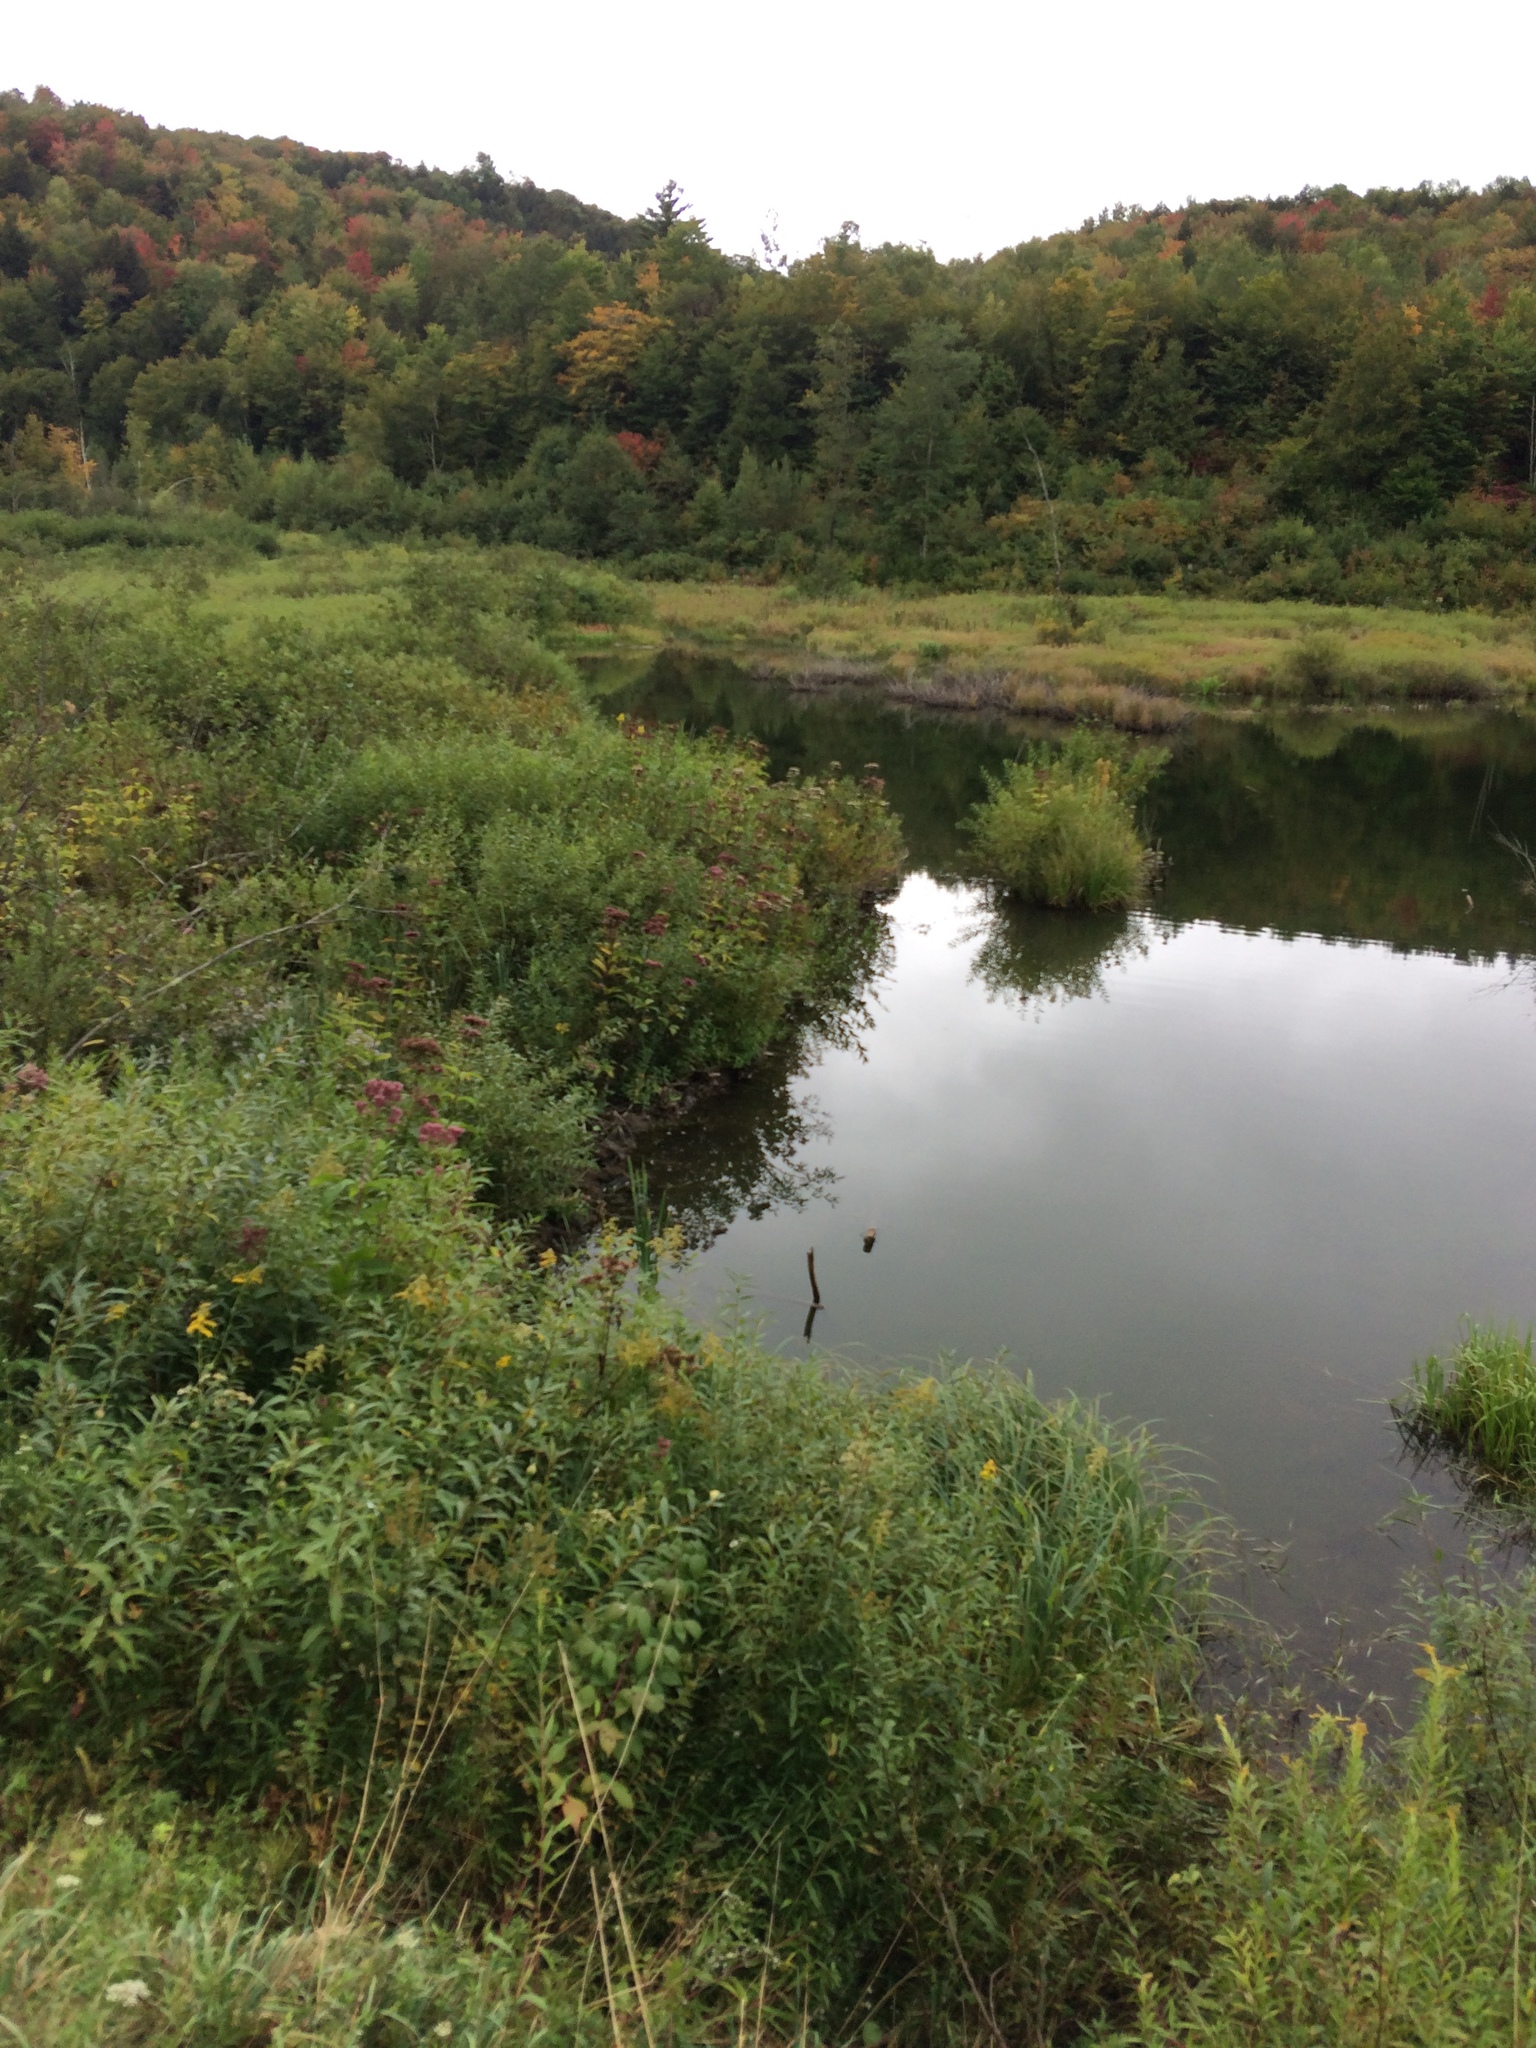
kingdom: Animalia
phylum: Chordata
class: Mammalia
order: Rodentia
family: Castoridae
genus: Castor
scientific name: Castor canadensis
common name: American beaver
